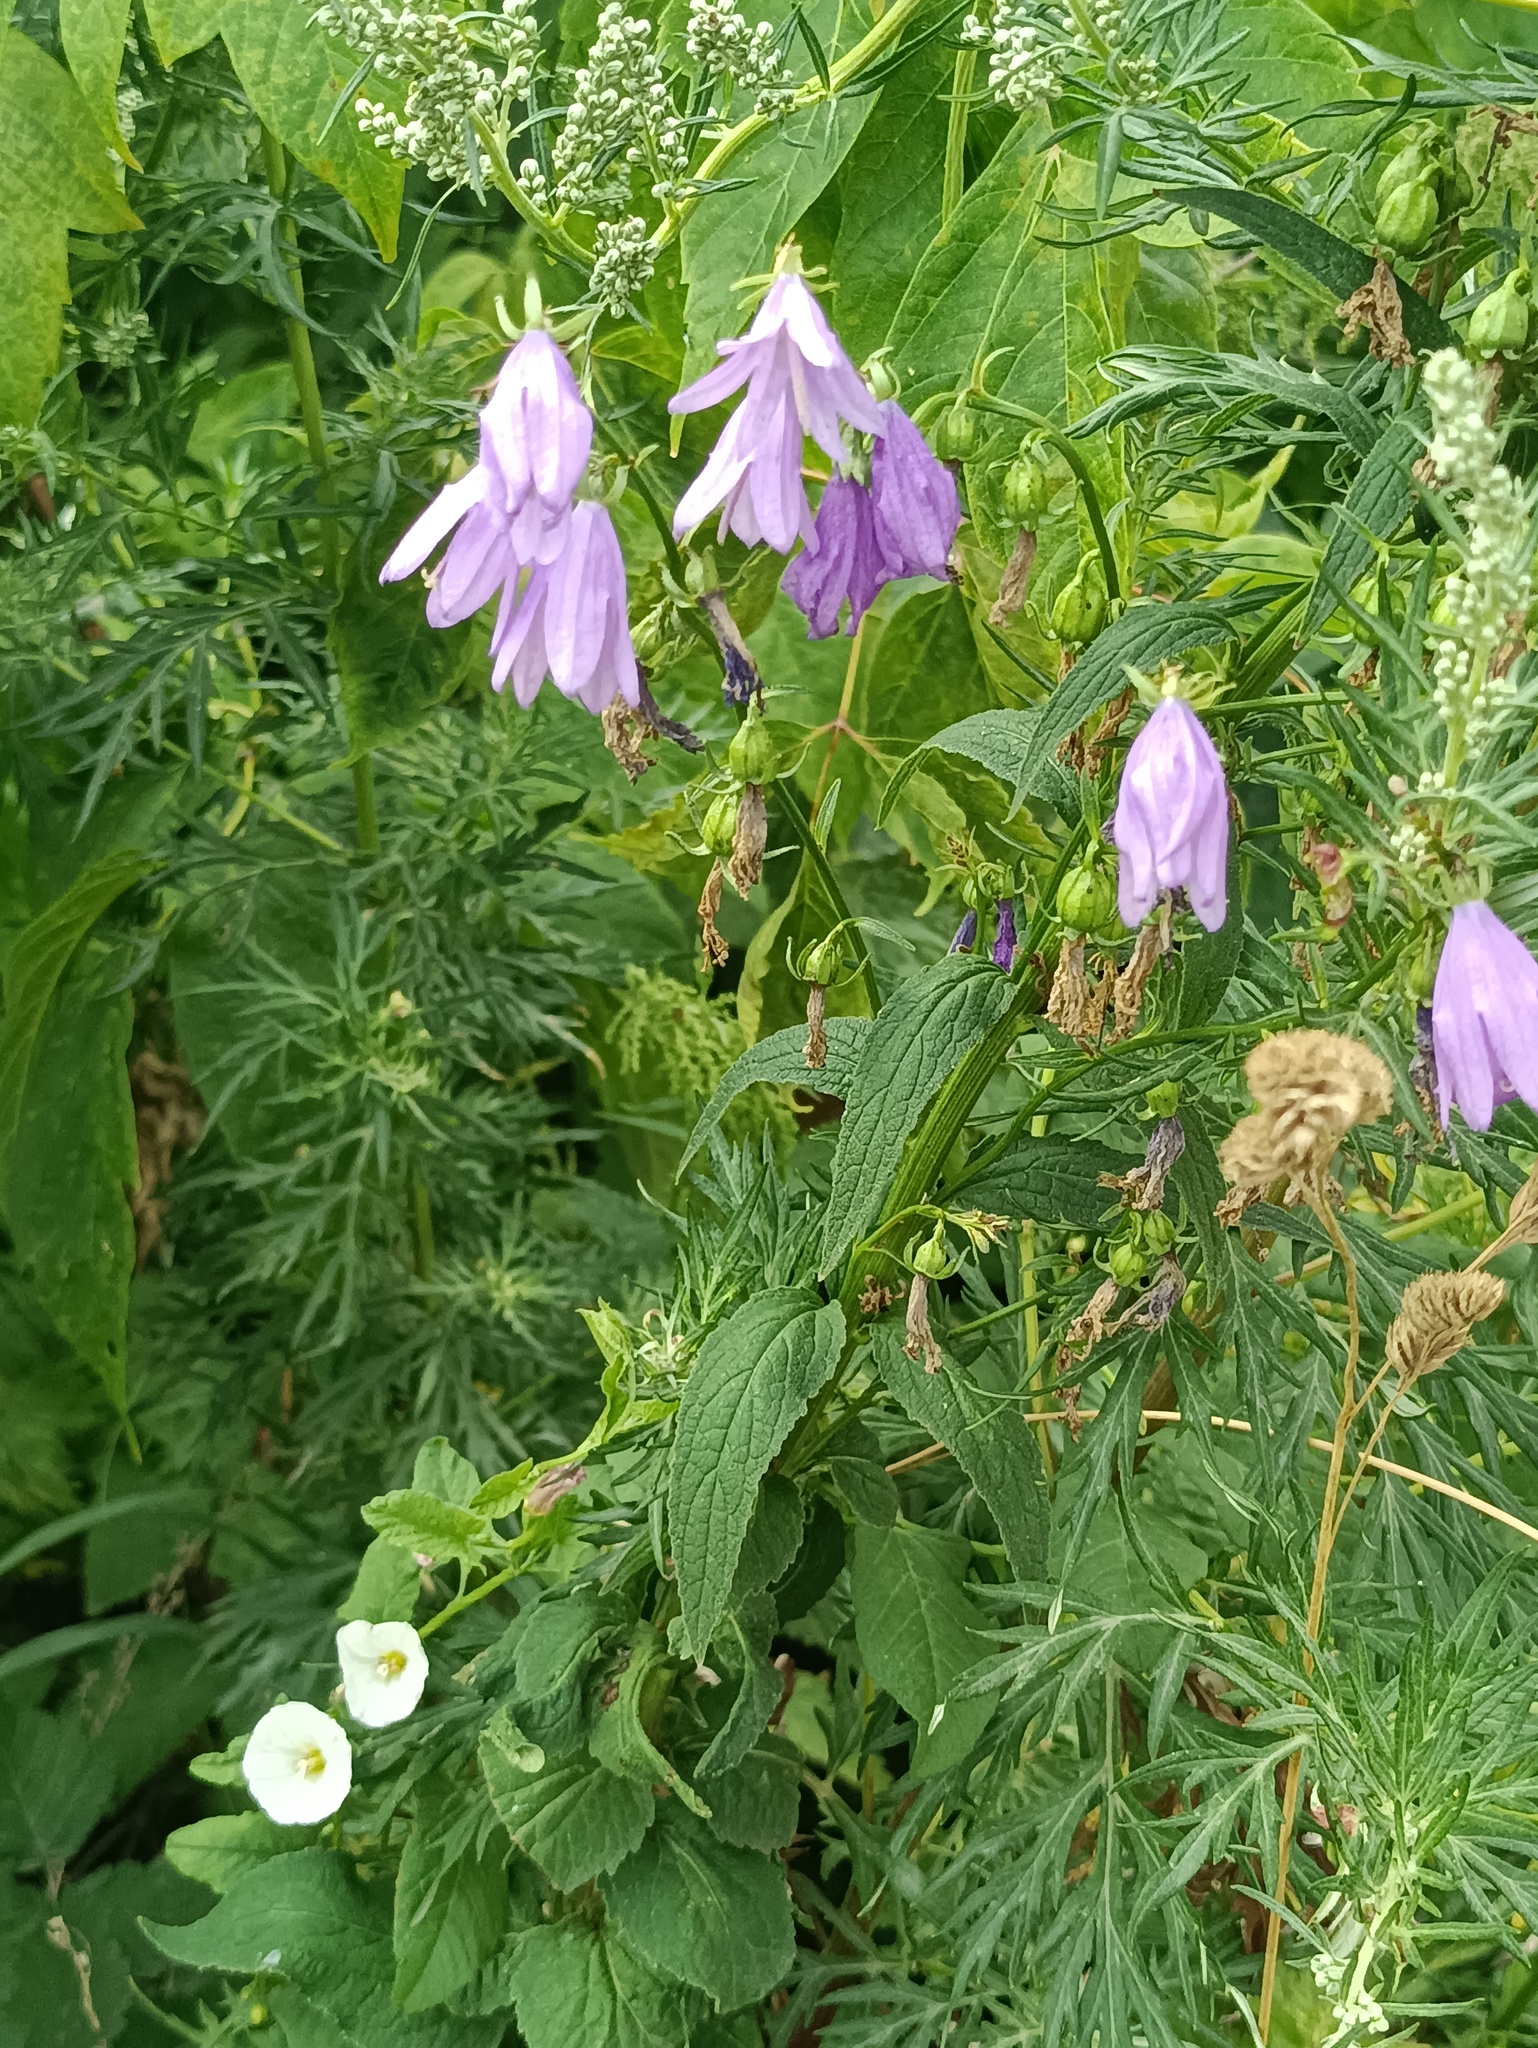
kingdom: Plantae
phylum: Tracheophyta
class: Magnoliopsida
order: Asterales
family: Campanulaceae
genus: Campanula
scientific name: Campanula rapunculoides
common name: Creeping bellflower
